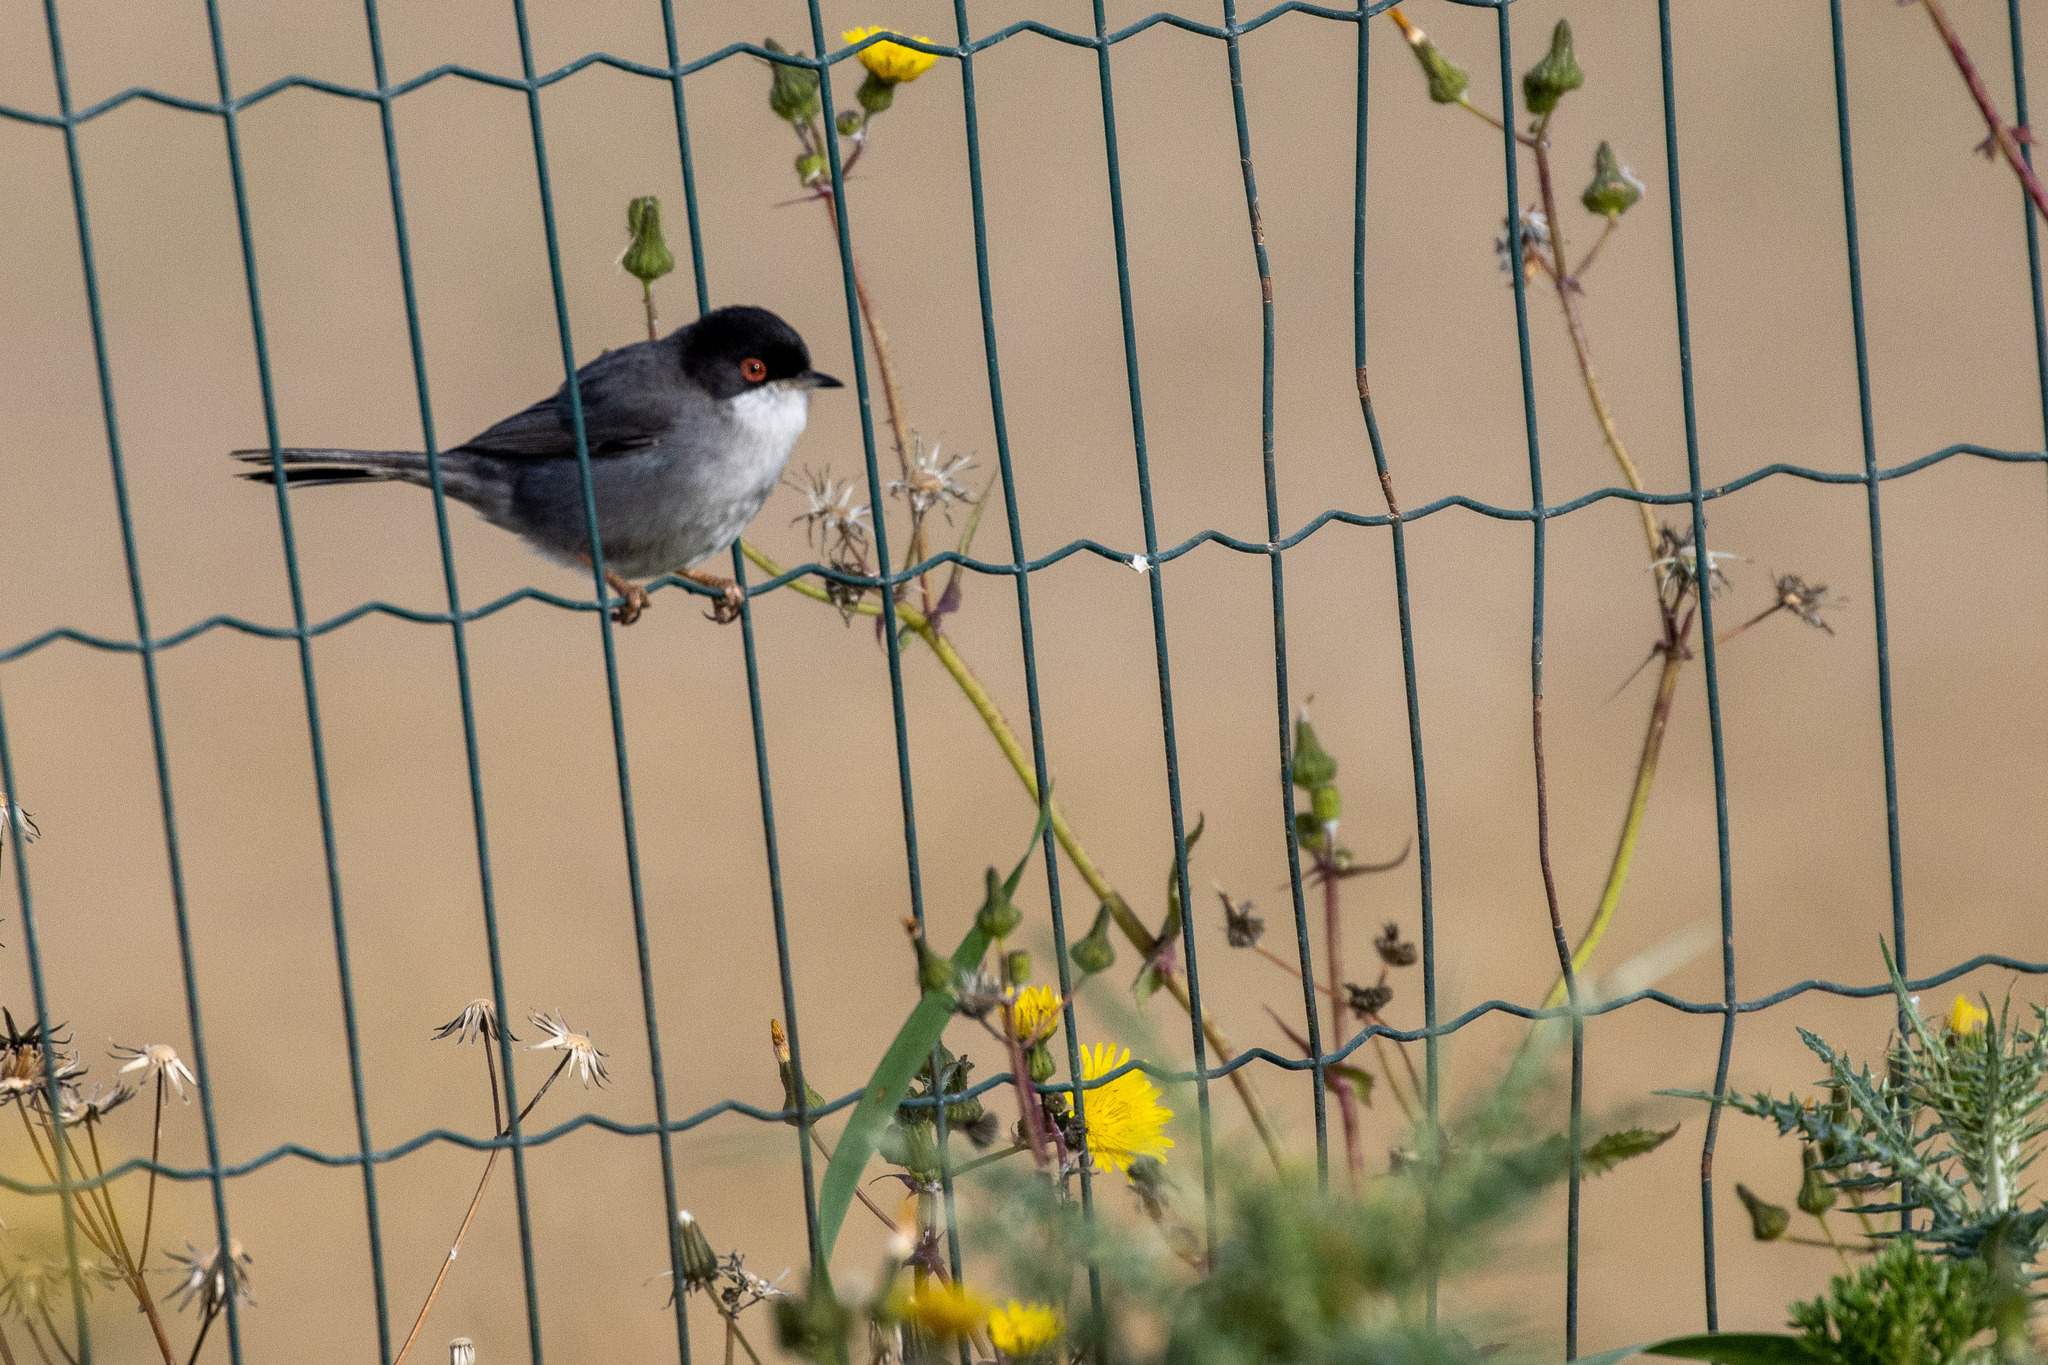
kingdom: Animalia
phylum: Chordata
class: Aves
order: Passeriformes
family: Sylviidae
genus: Curruca
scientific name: Curruca melanocephala
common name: Sardinian warbler
